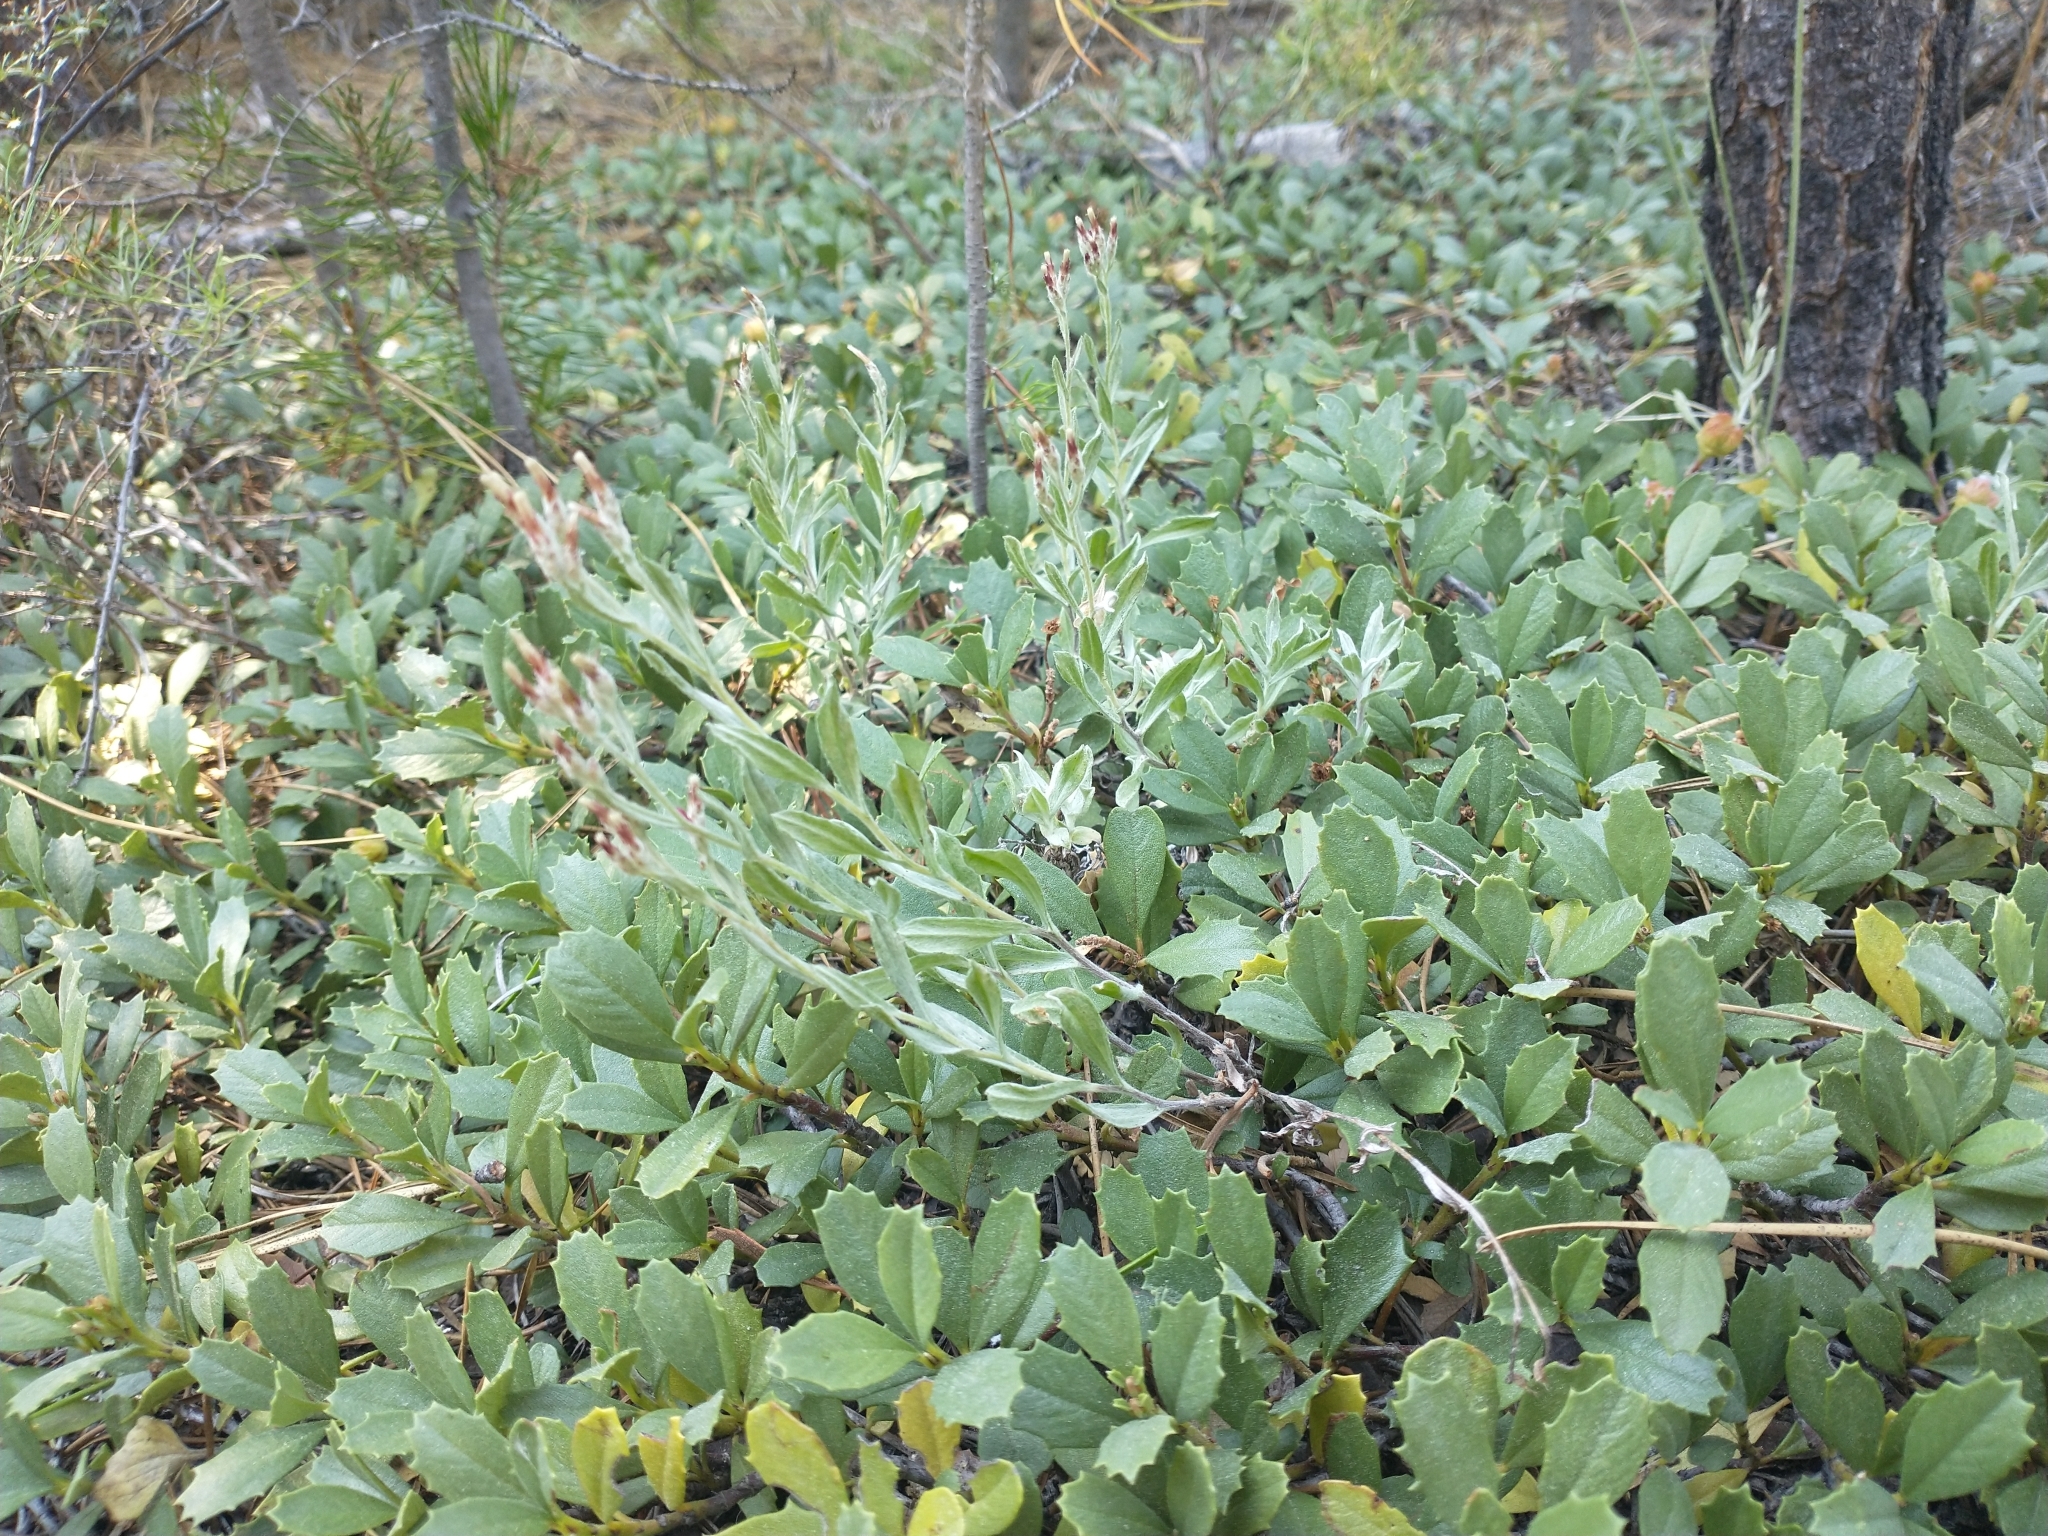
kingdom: Plantae
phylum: Tracheophyta
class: Magnoliopsida
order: Asterales
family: Asteraceae
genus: Antennaria
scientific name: Antennaria geyeri
